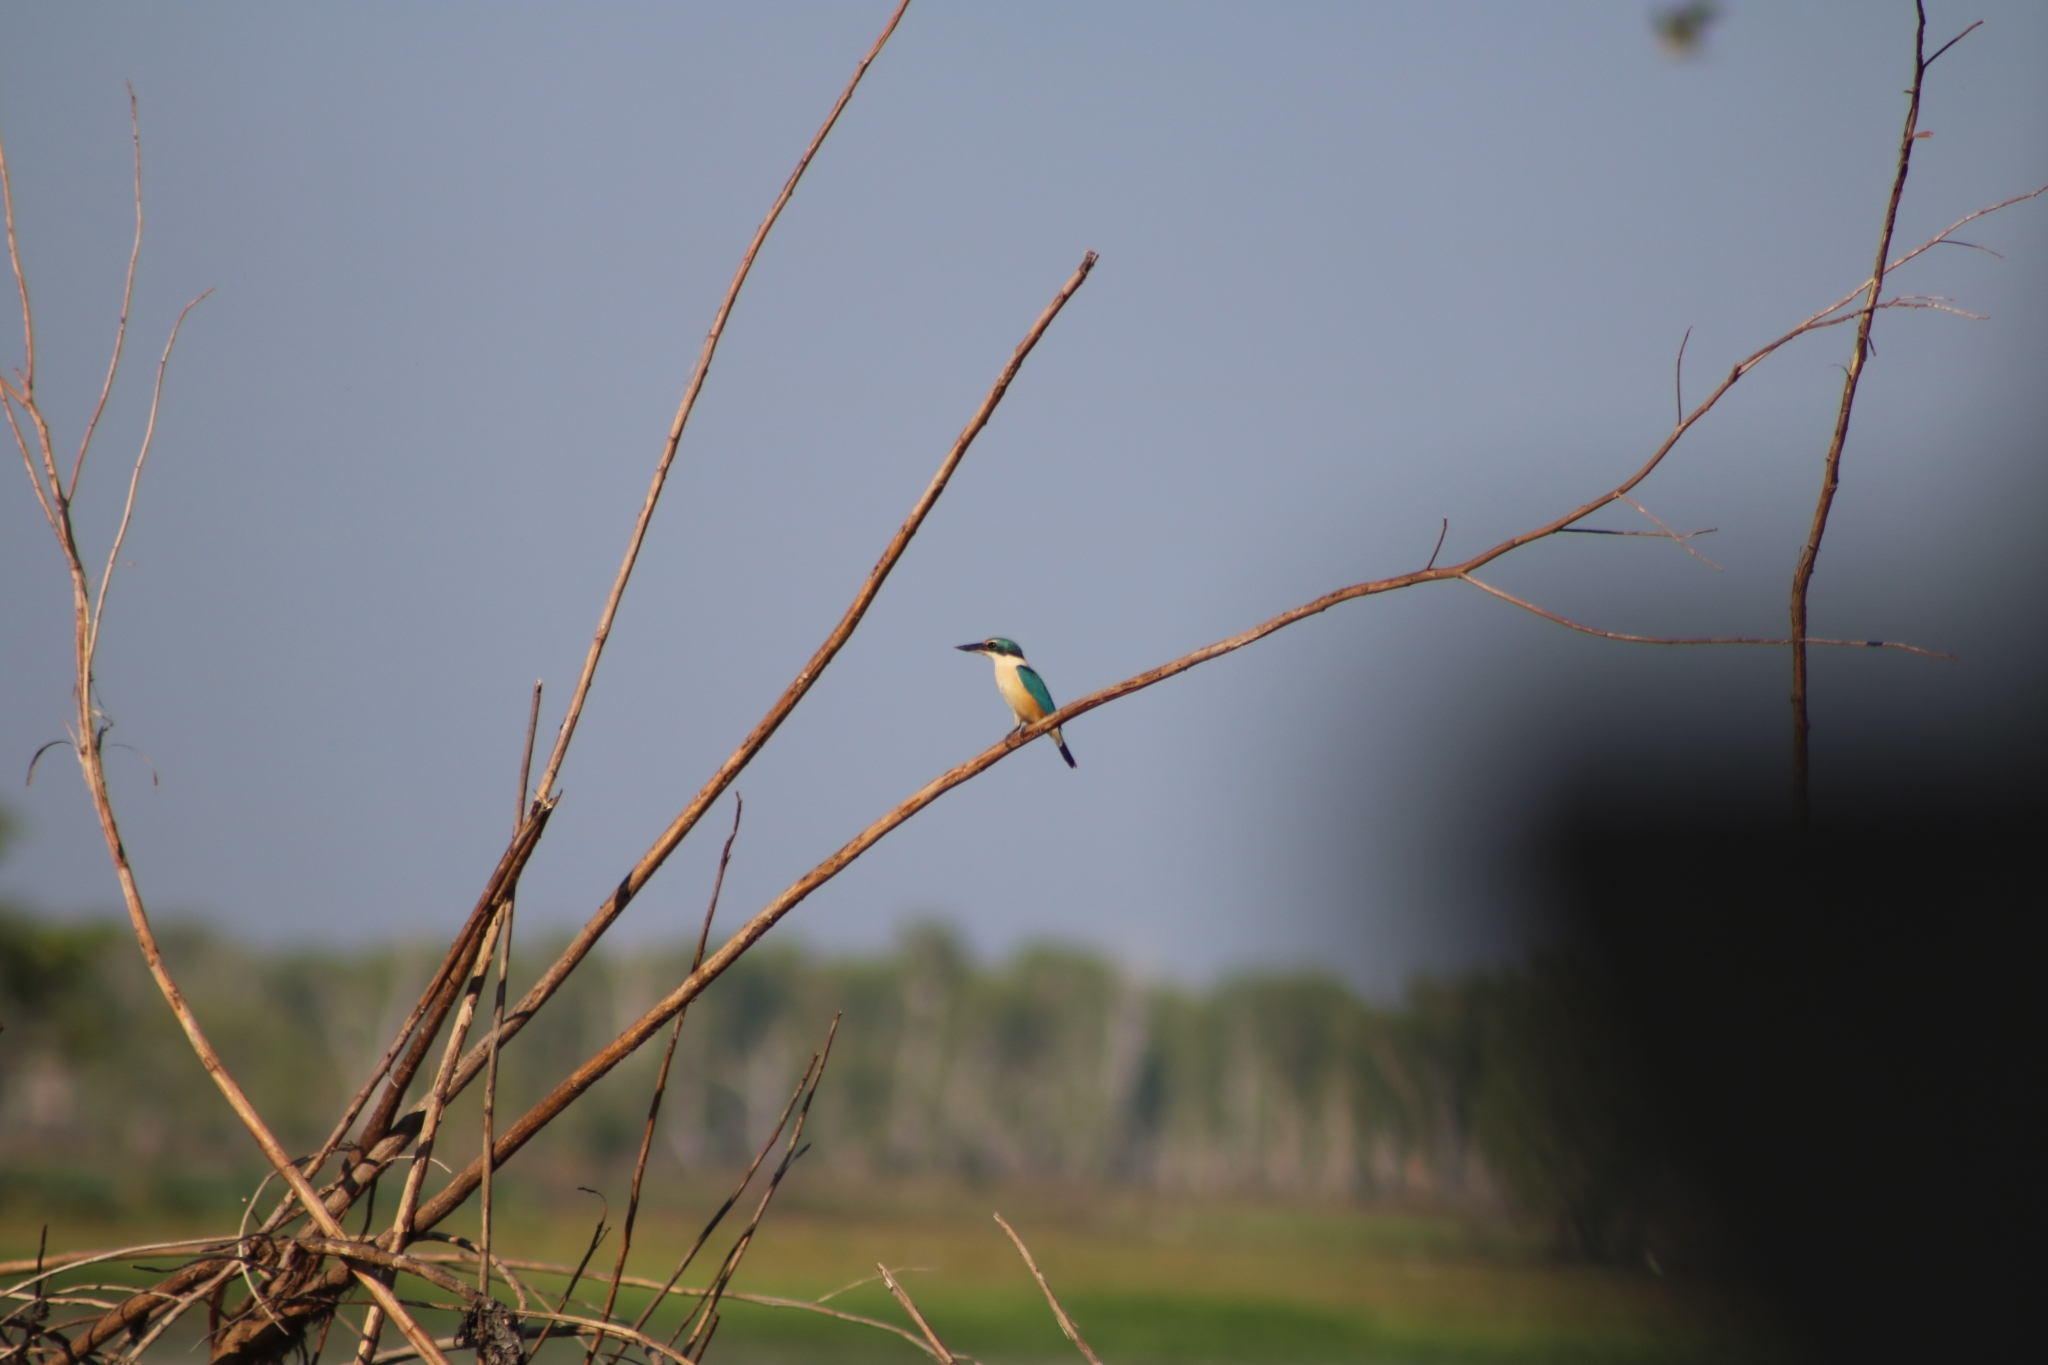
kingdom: Animalia
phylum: Chordata
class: Aves
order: Coraciiformes
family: Alcedinidae
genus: Todiramphus
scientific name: Todiramphus sanctus
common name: Sacred kingfisher
